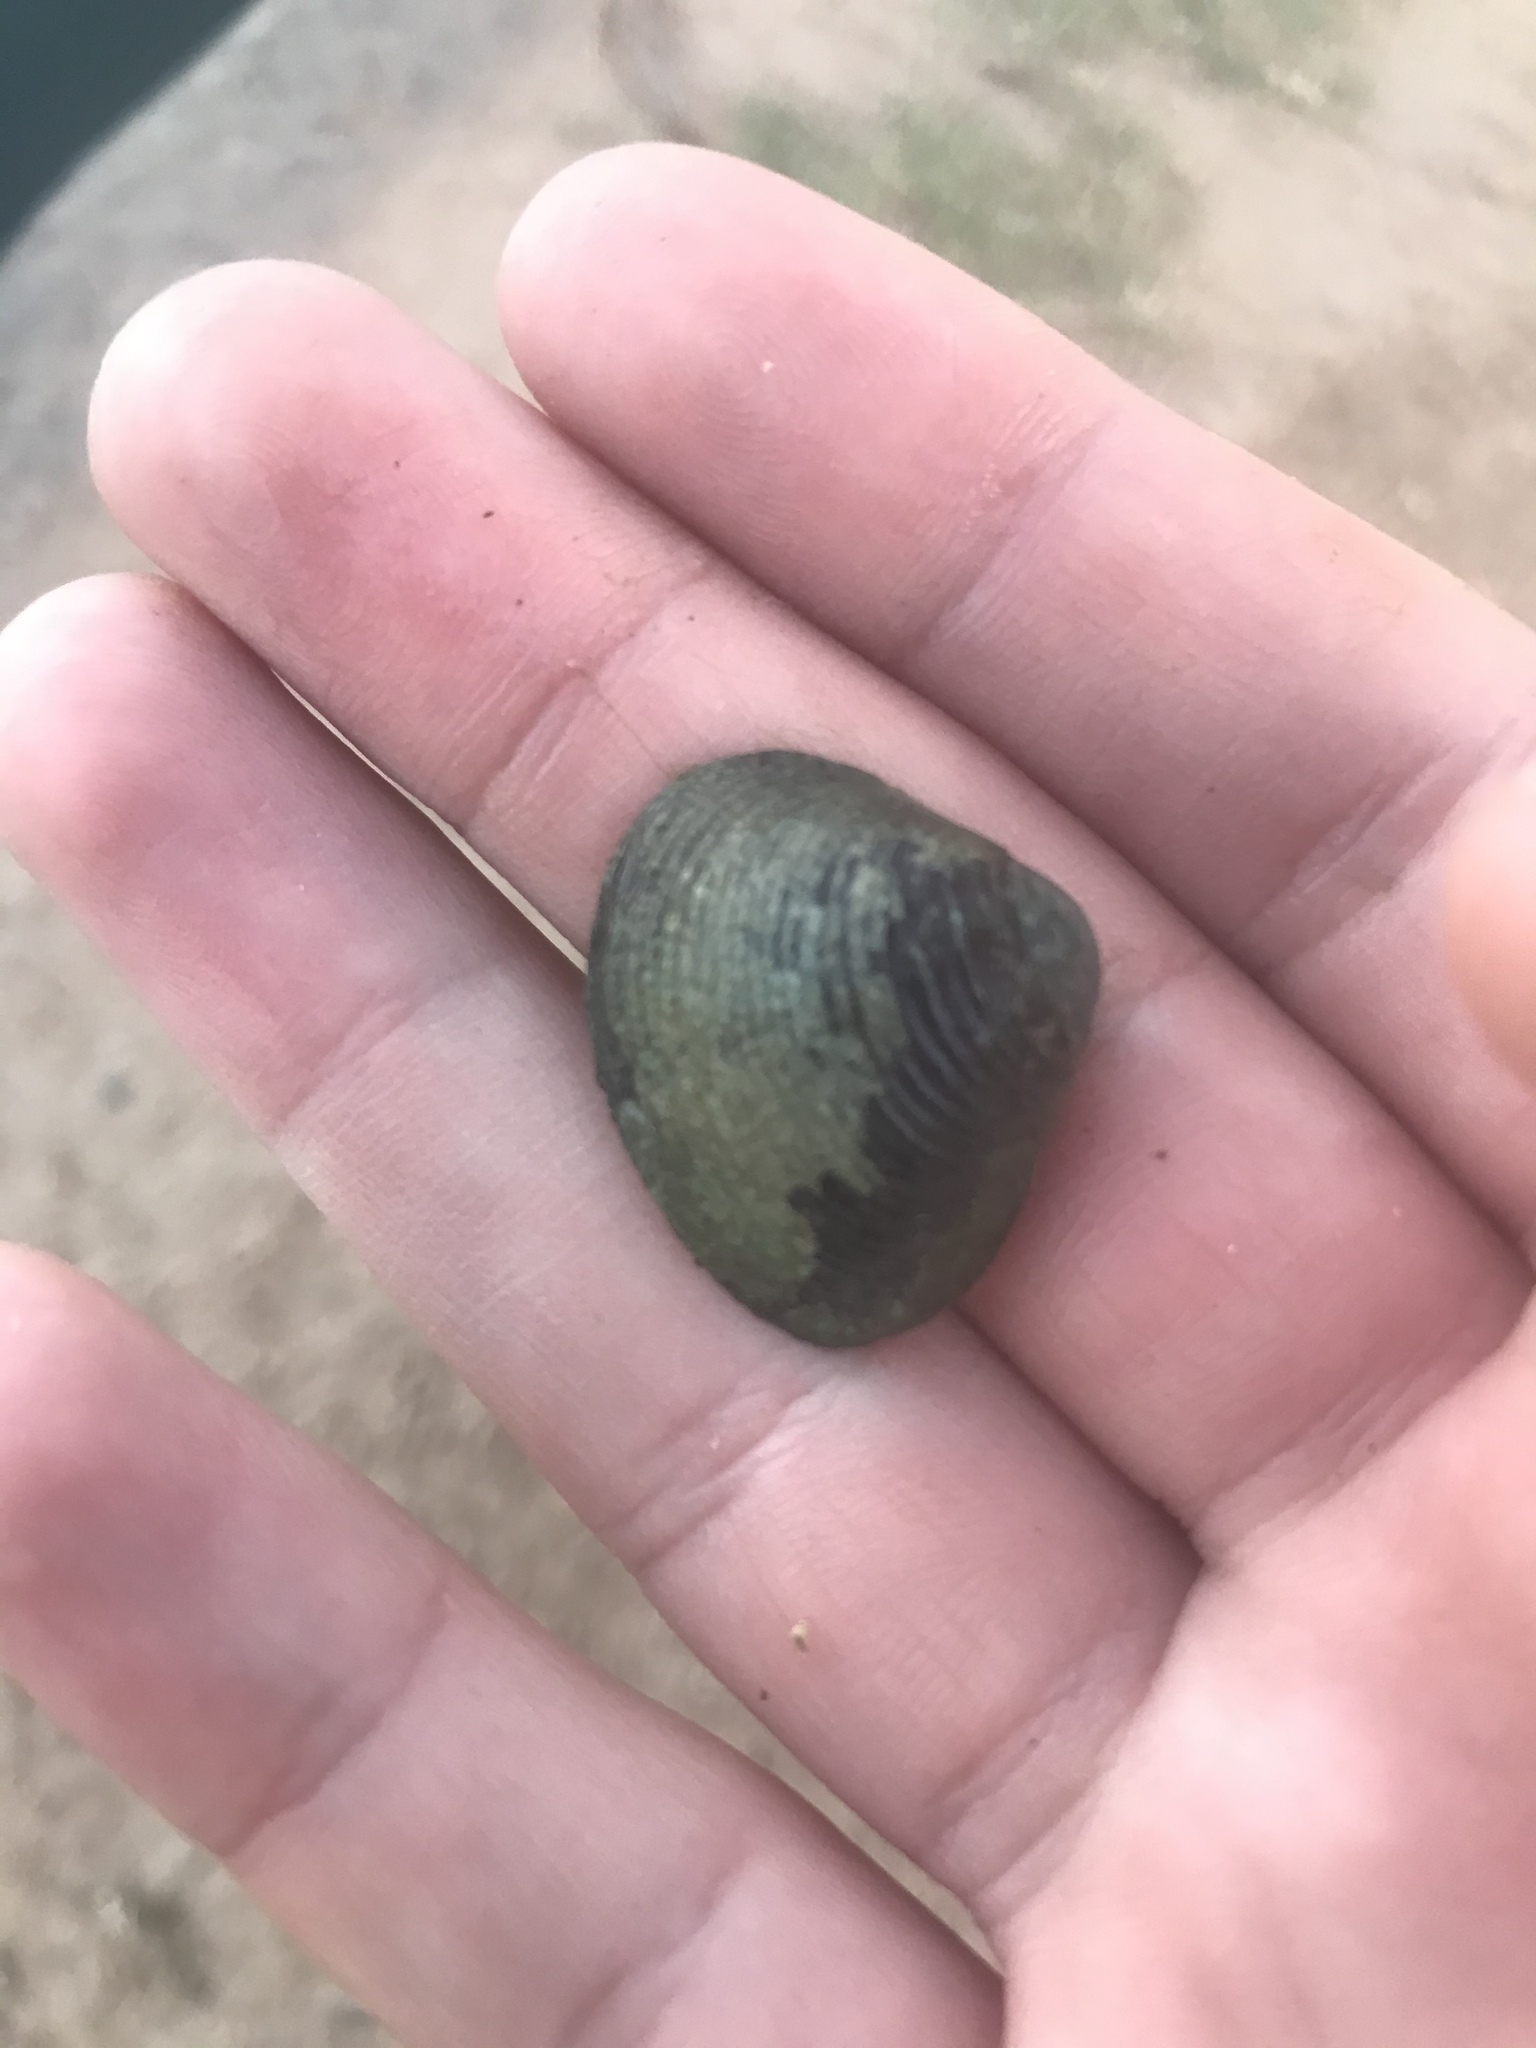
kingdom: Animalia
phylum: Mollusca
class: Bivalvia
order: Venerida
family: Cyrenidae
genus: Corbicula
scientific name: Corbicula fluminea
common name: Asian clam
